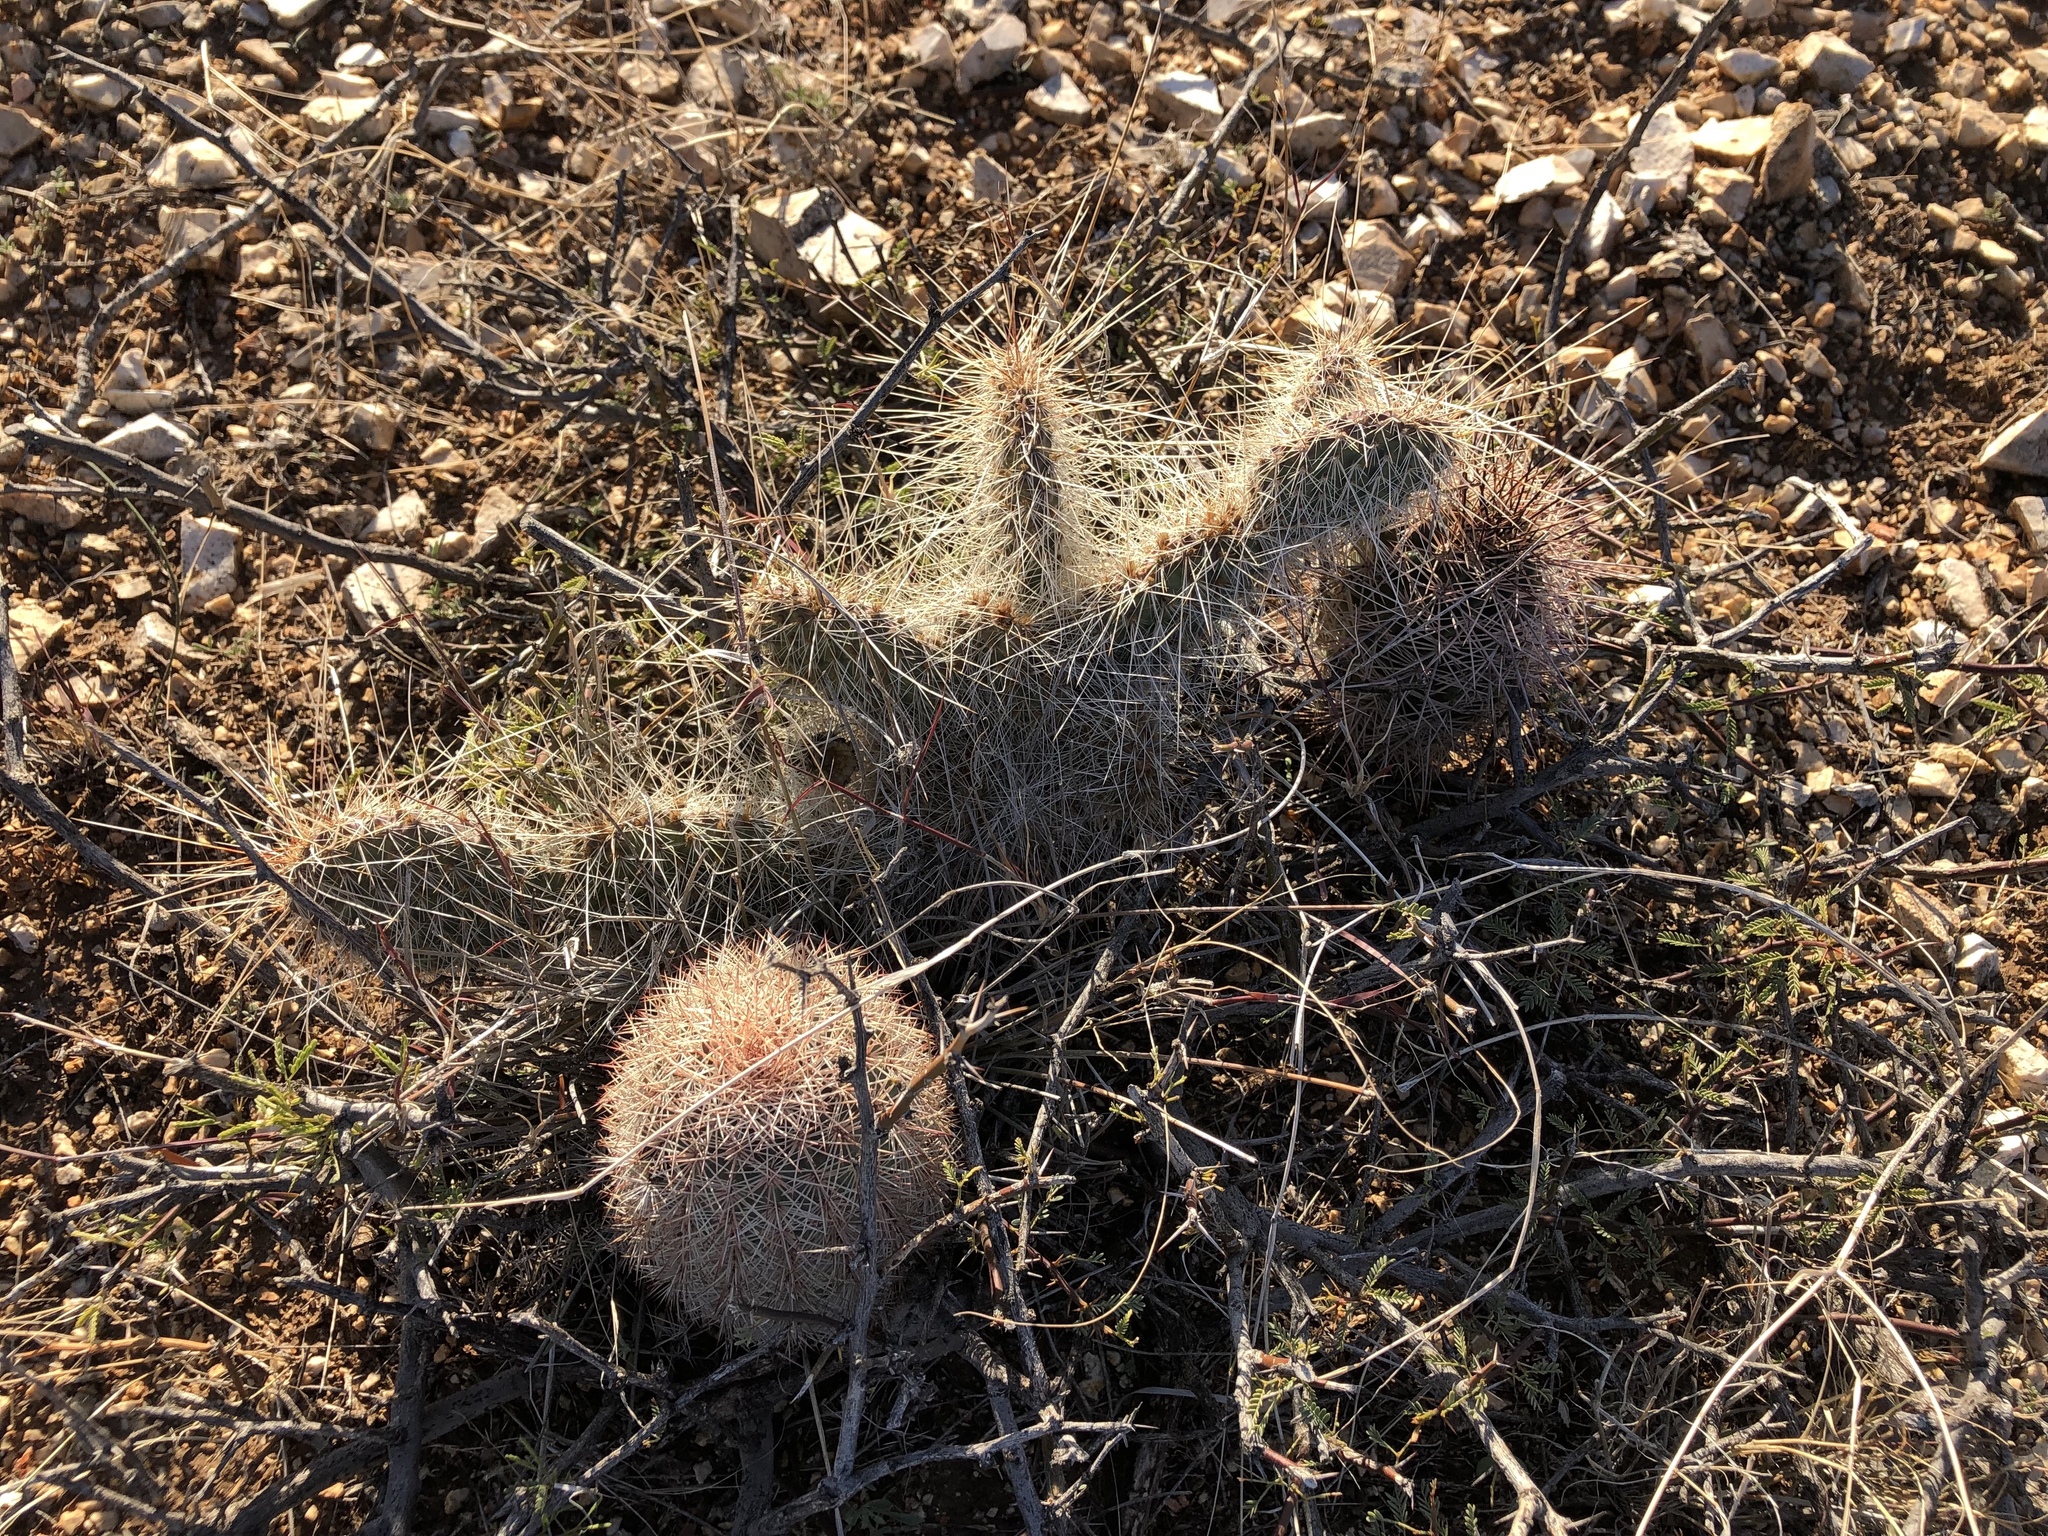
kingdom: Plantae
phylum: Tracheophyta
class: Magnoliopsida
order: Caryophyllales
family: Cactaceae
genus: Echinocereus
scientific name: Echinocereus coccineus
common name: Scarlet hedgehog cactus
